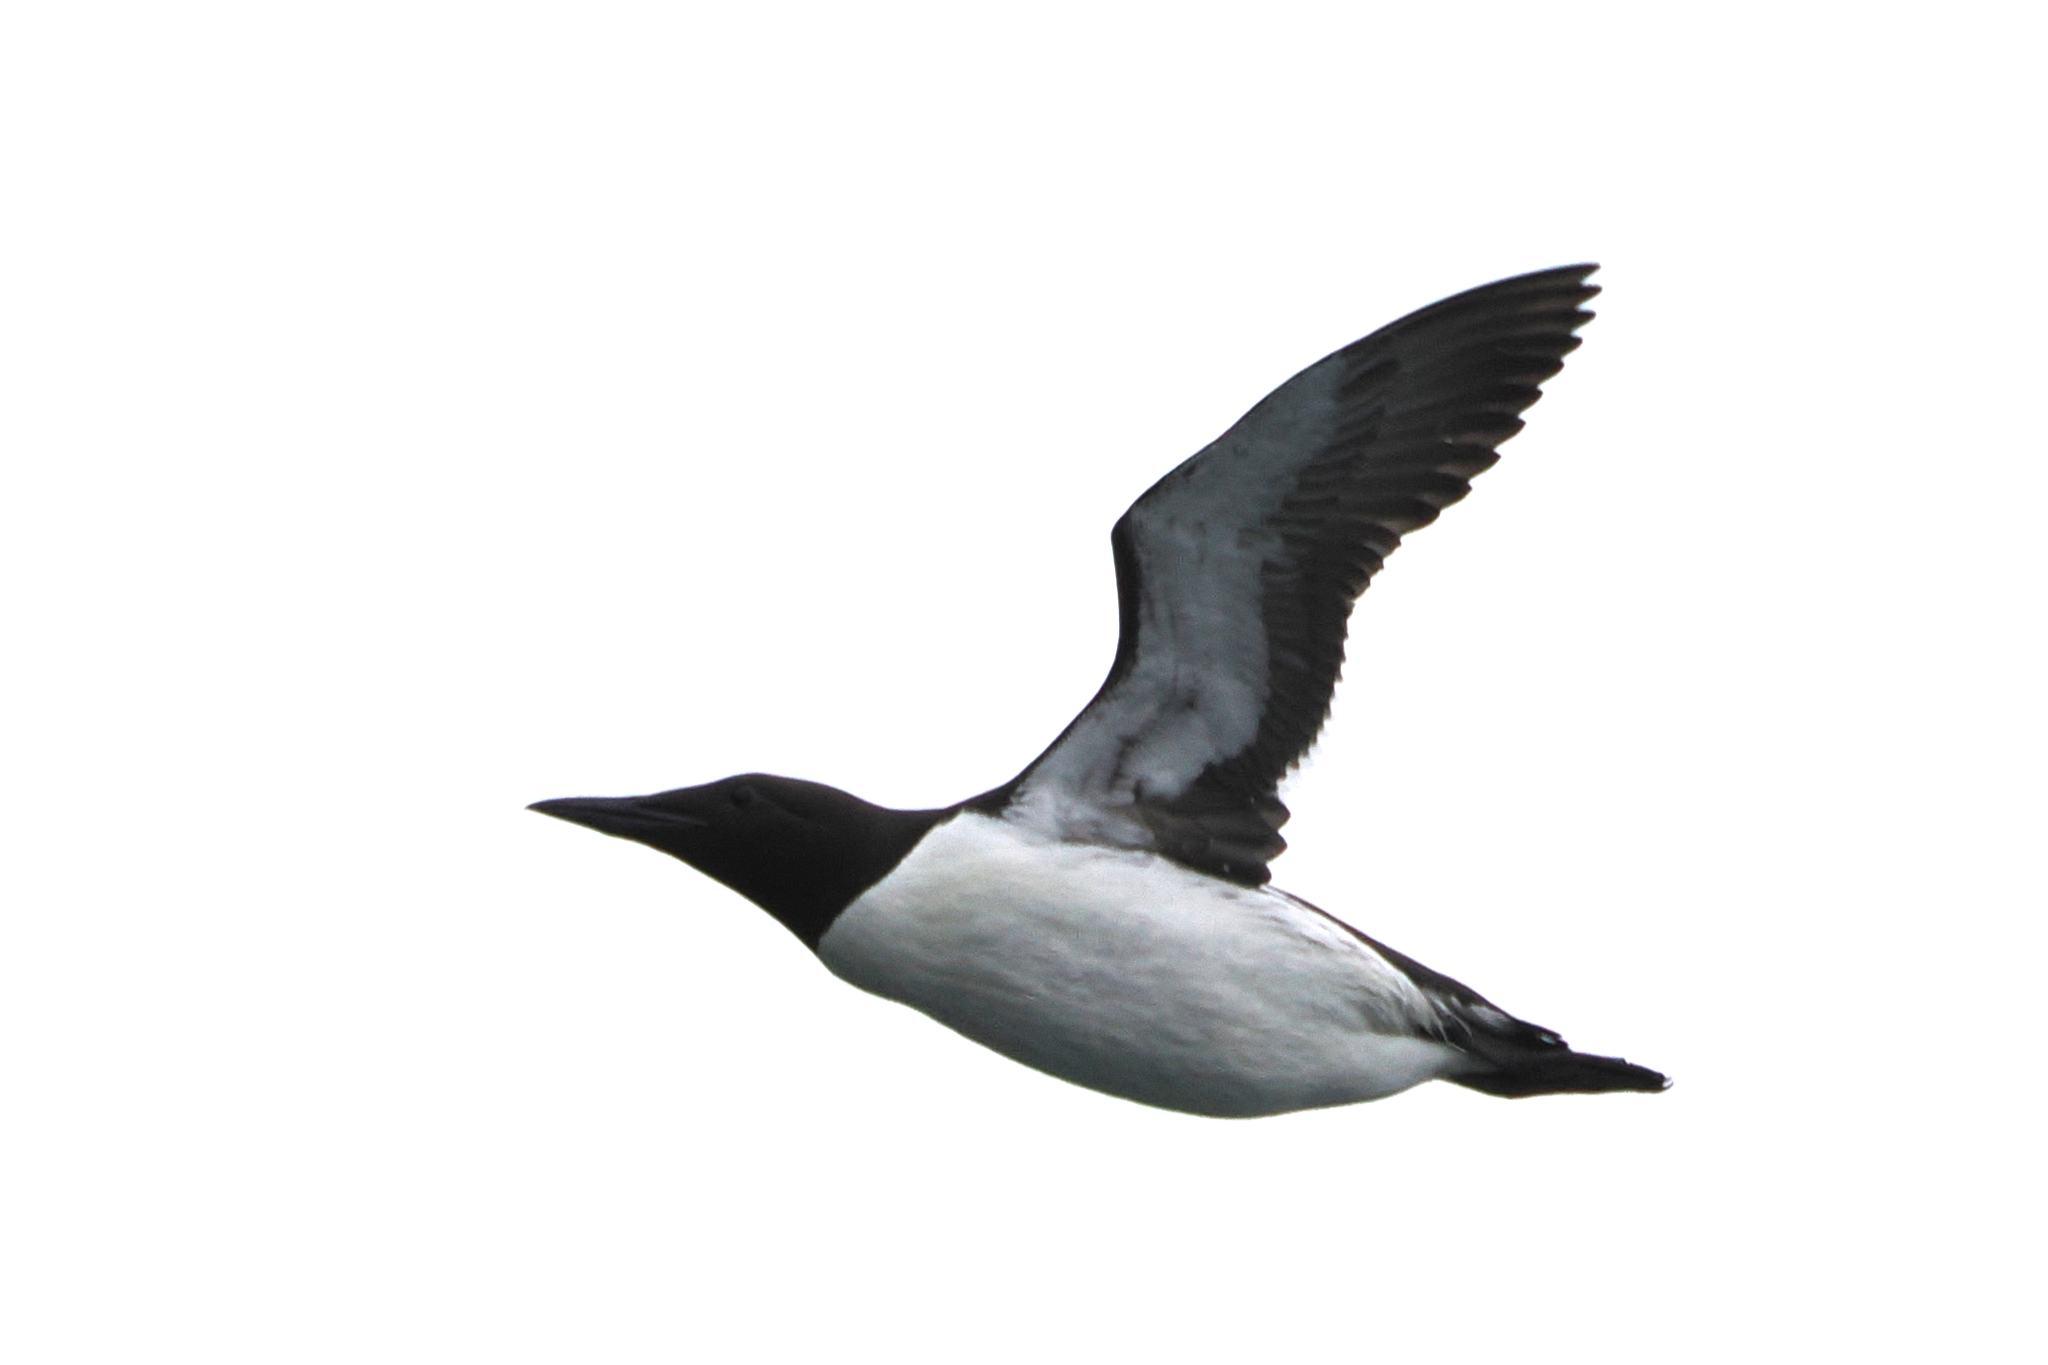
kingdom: Animalia
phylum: Chordata
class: Aves
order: Charadriiformes
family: Alcidae
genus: Uria
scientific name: Uria aalge
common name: Common murre
